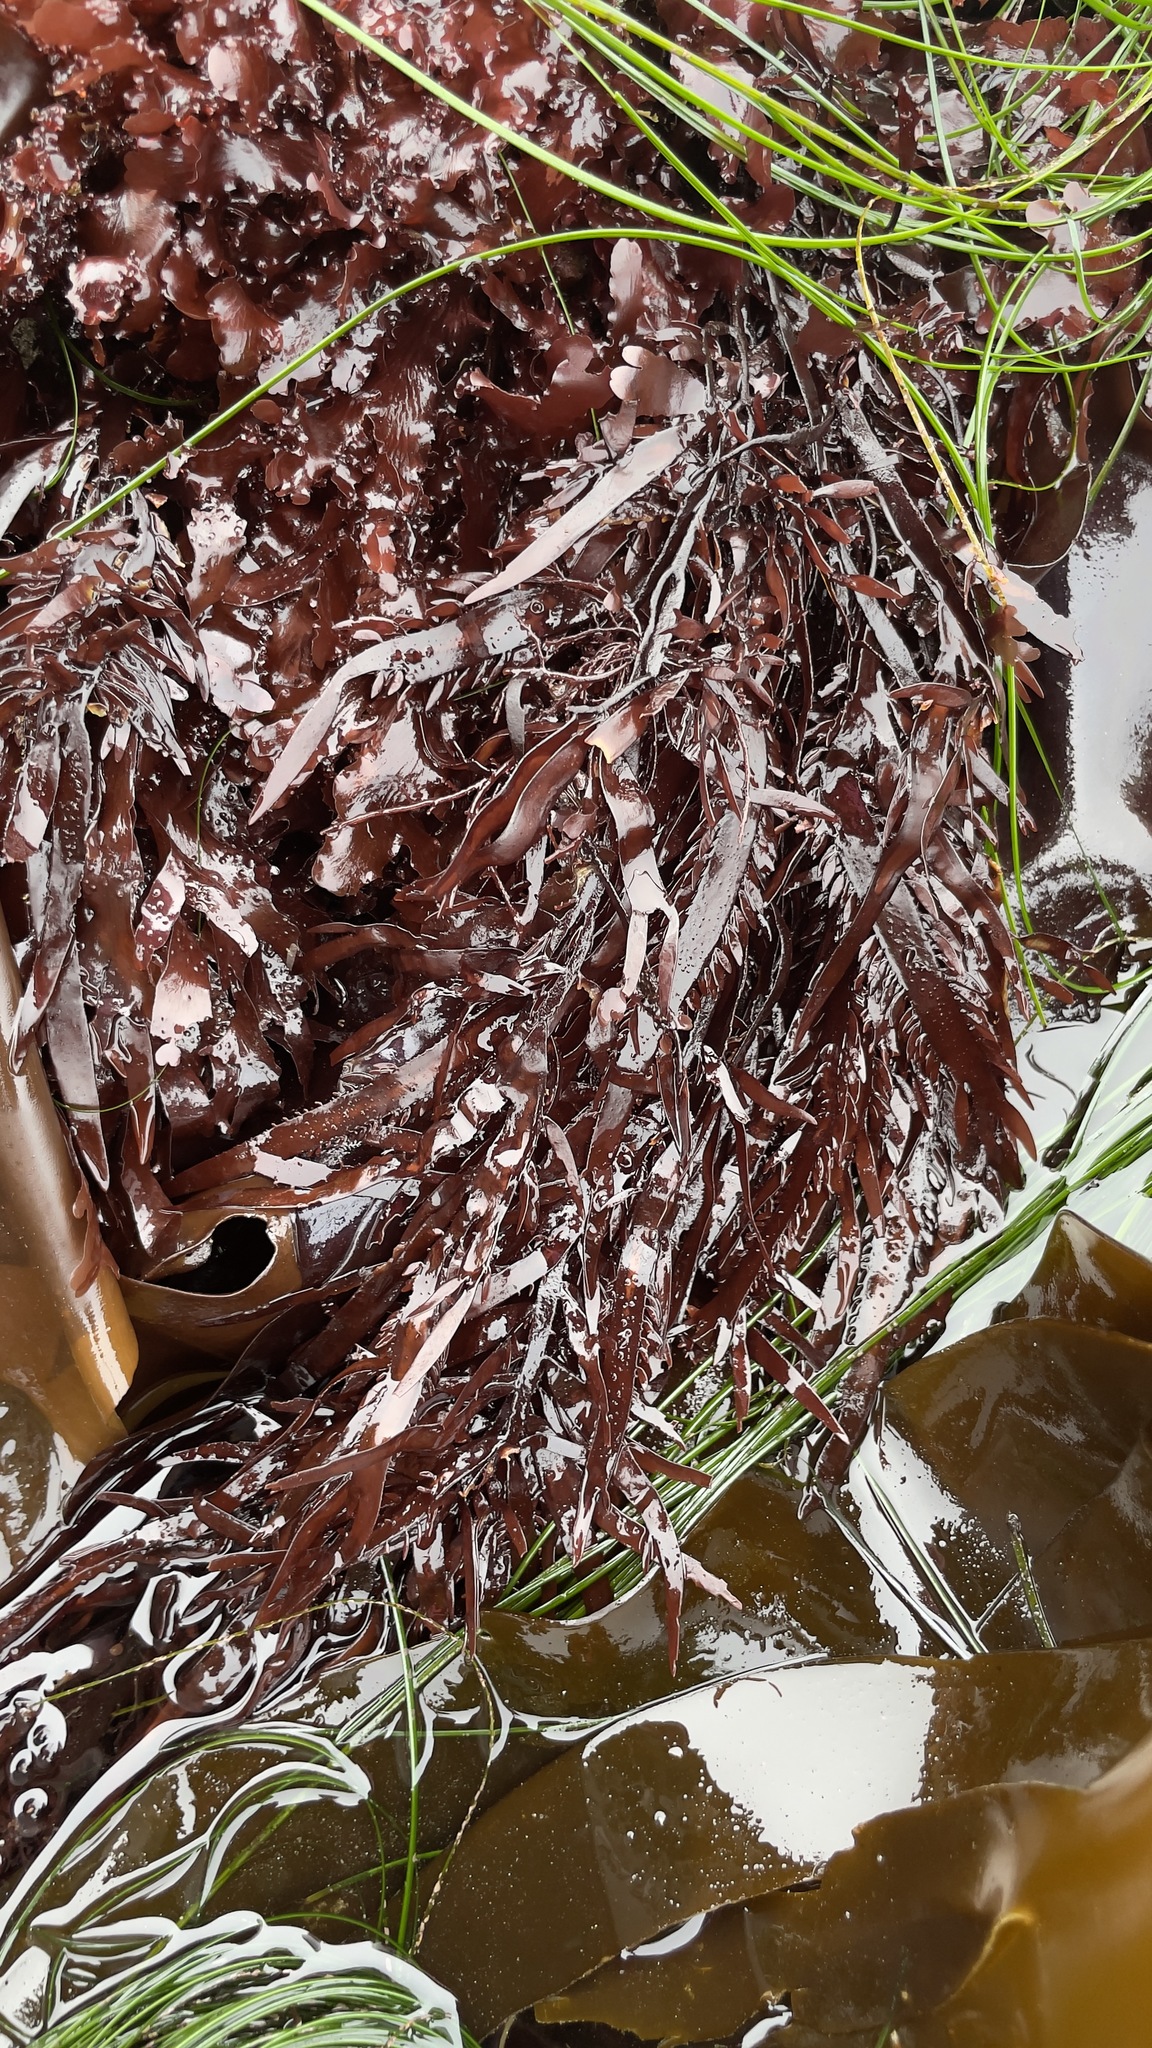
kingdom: Plantae
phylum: Rhodophyta
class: Florideophyceae
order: Halymeniales
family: Halymeniaceae
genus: Grateloupia
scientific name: Grateloupia Prionitis lanceolata
